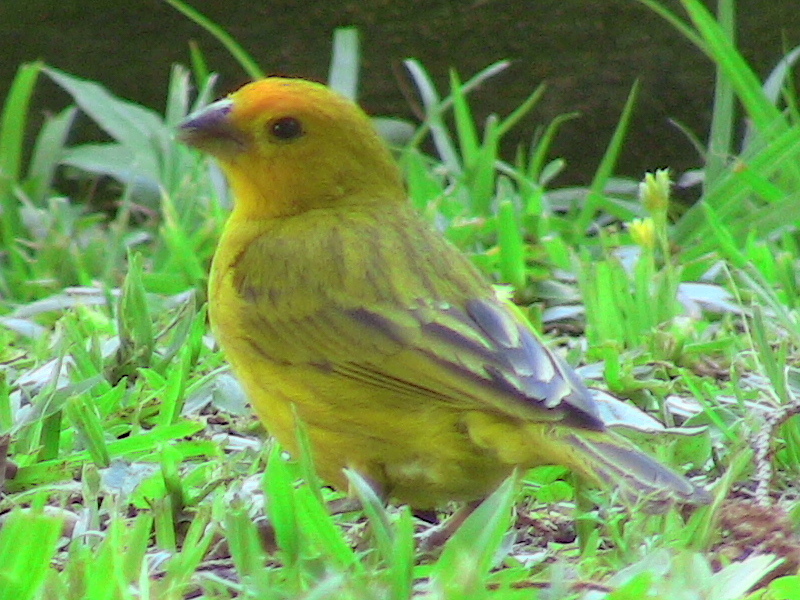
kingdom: Animalia
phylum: Chordata
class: Aves
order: Passeriformes
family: Thraupidae
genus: Sicalis
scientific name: Sicalis flaveola
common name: Saffron finch
